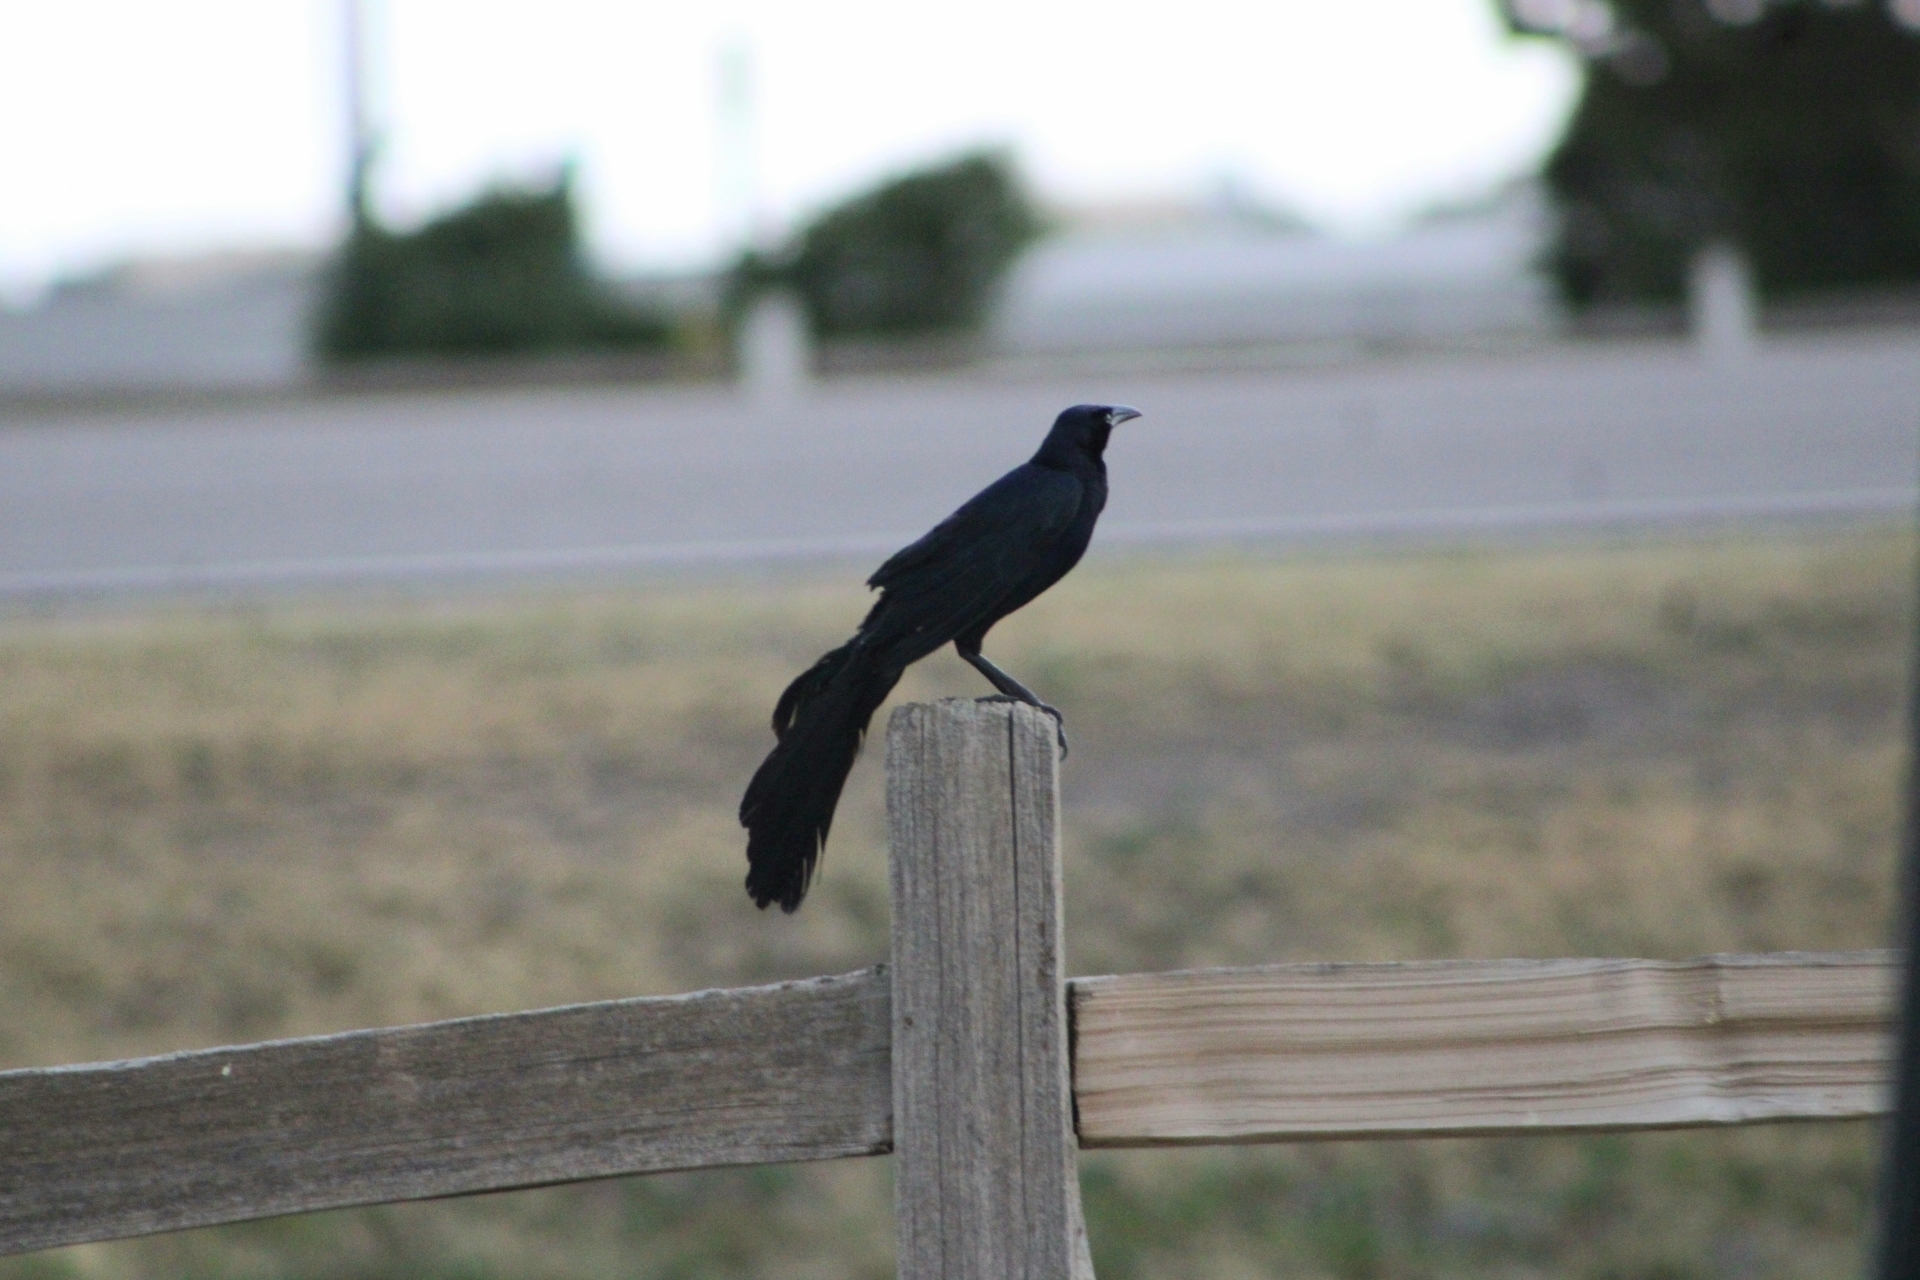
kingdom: Animalia
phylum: Chordata
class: Aves
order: Passeriformes
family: Icteridae
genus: Quiscalus
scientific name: Quiscalus mexicanus
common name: Great-tailed grackle
